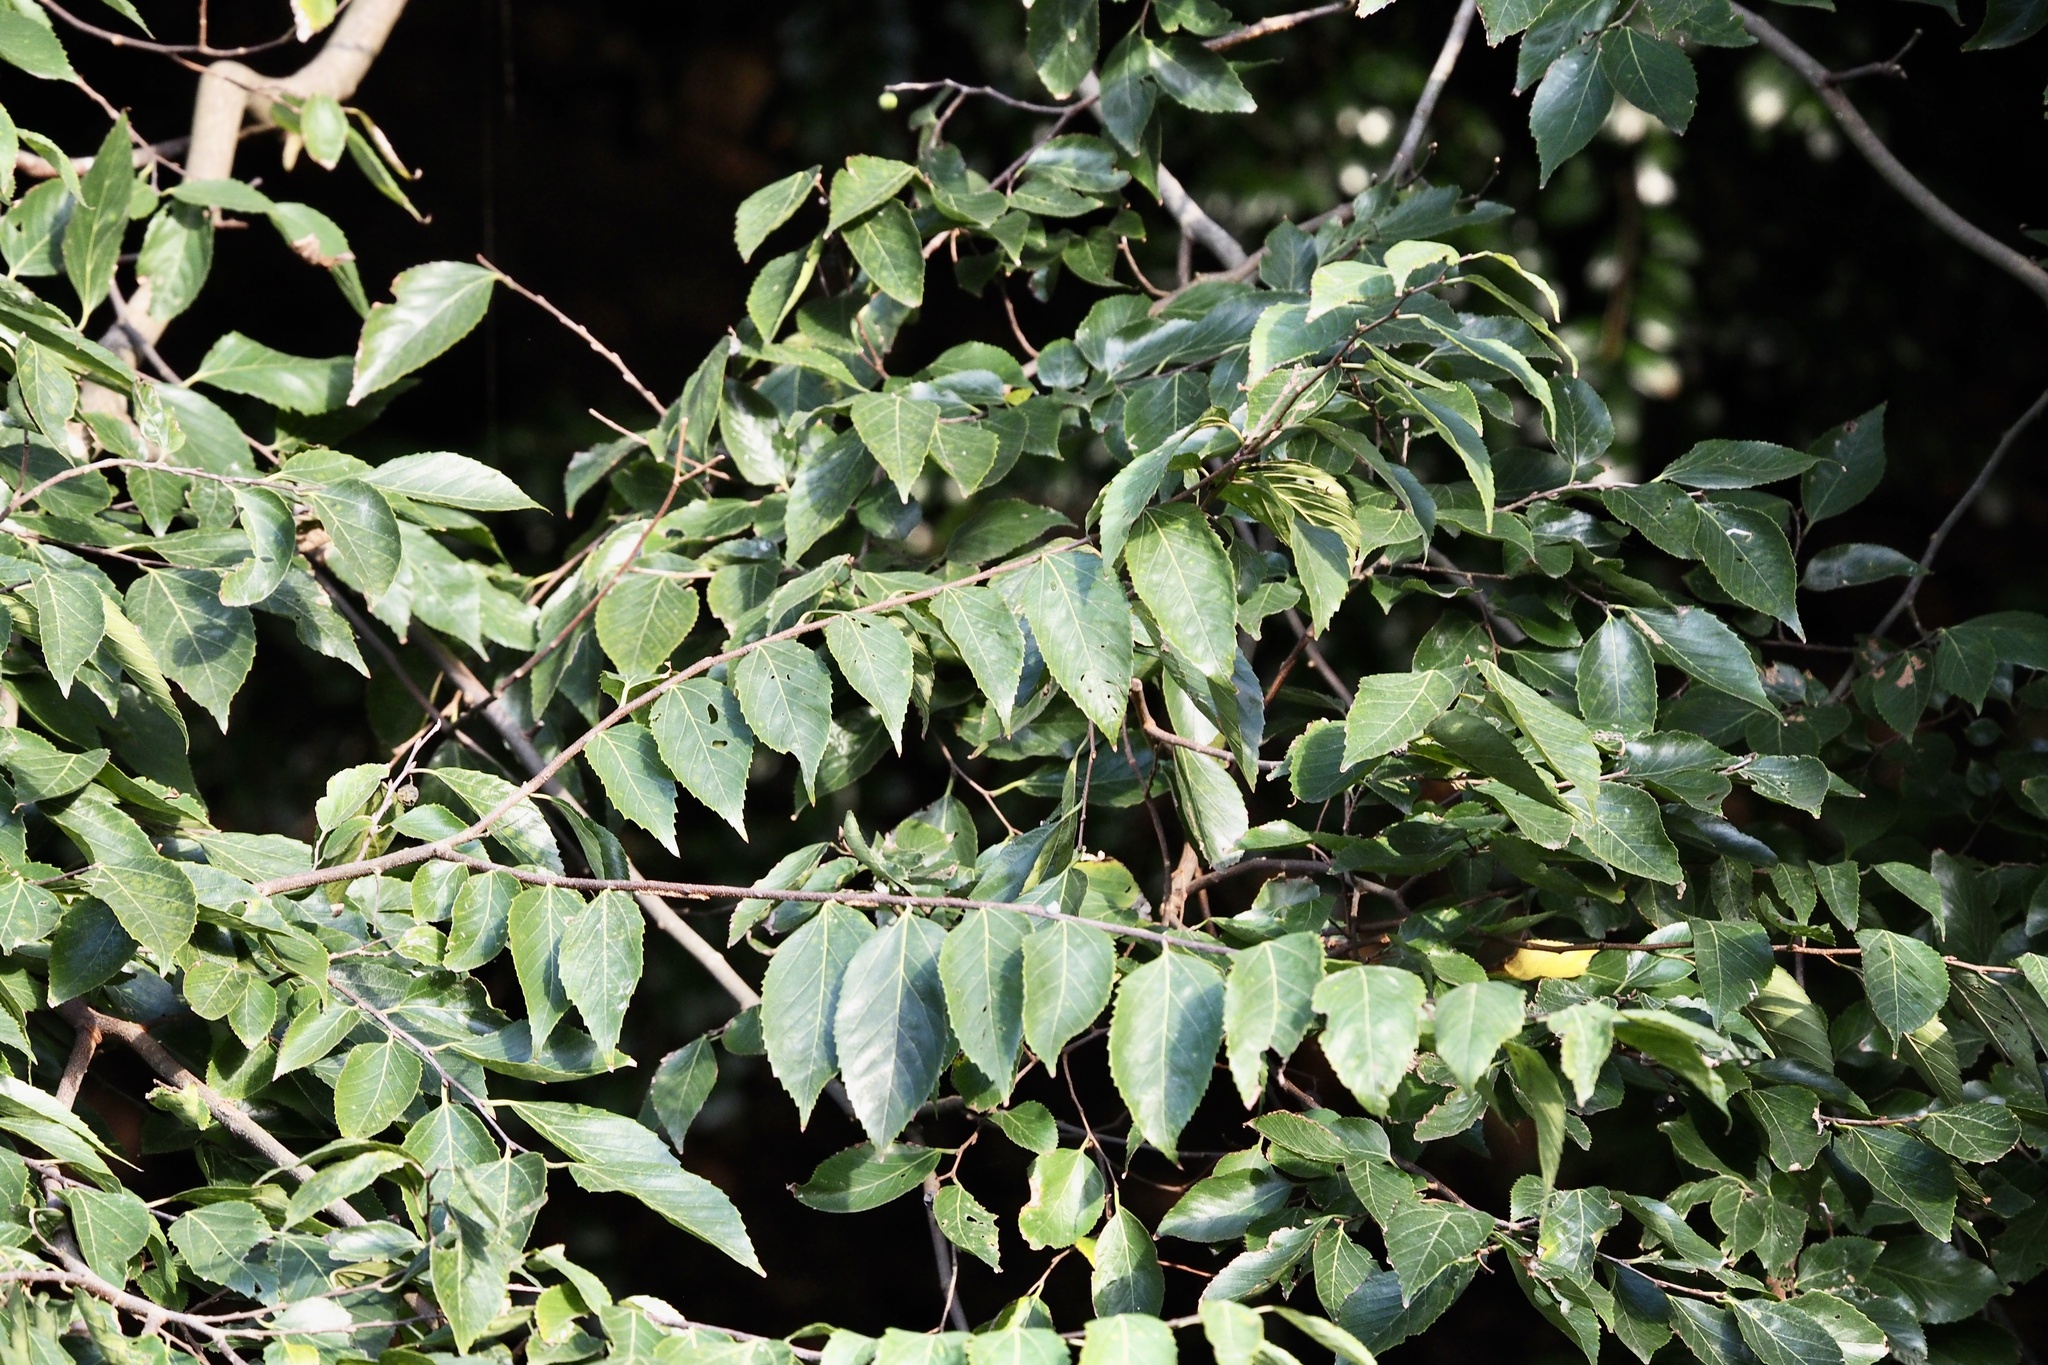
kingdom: Plantae
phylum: Tracheophyta
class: Magnoliopsida
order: Rosales
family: Cannabaceae
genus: Aphananthe
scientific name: Aphananthe aspera
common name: Mukutree
